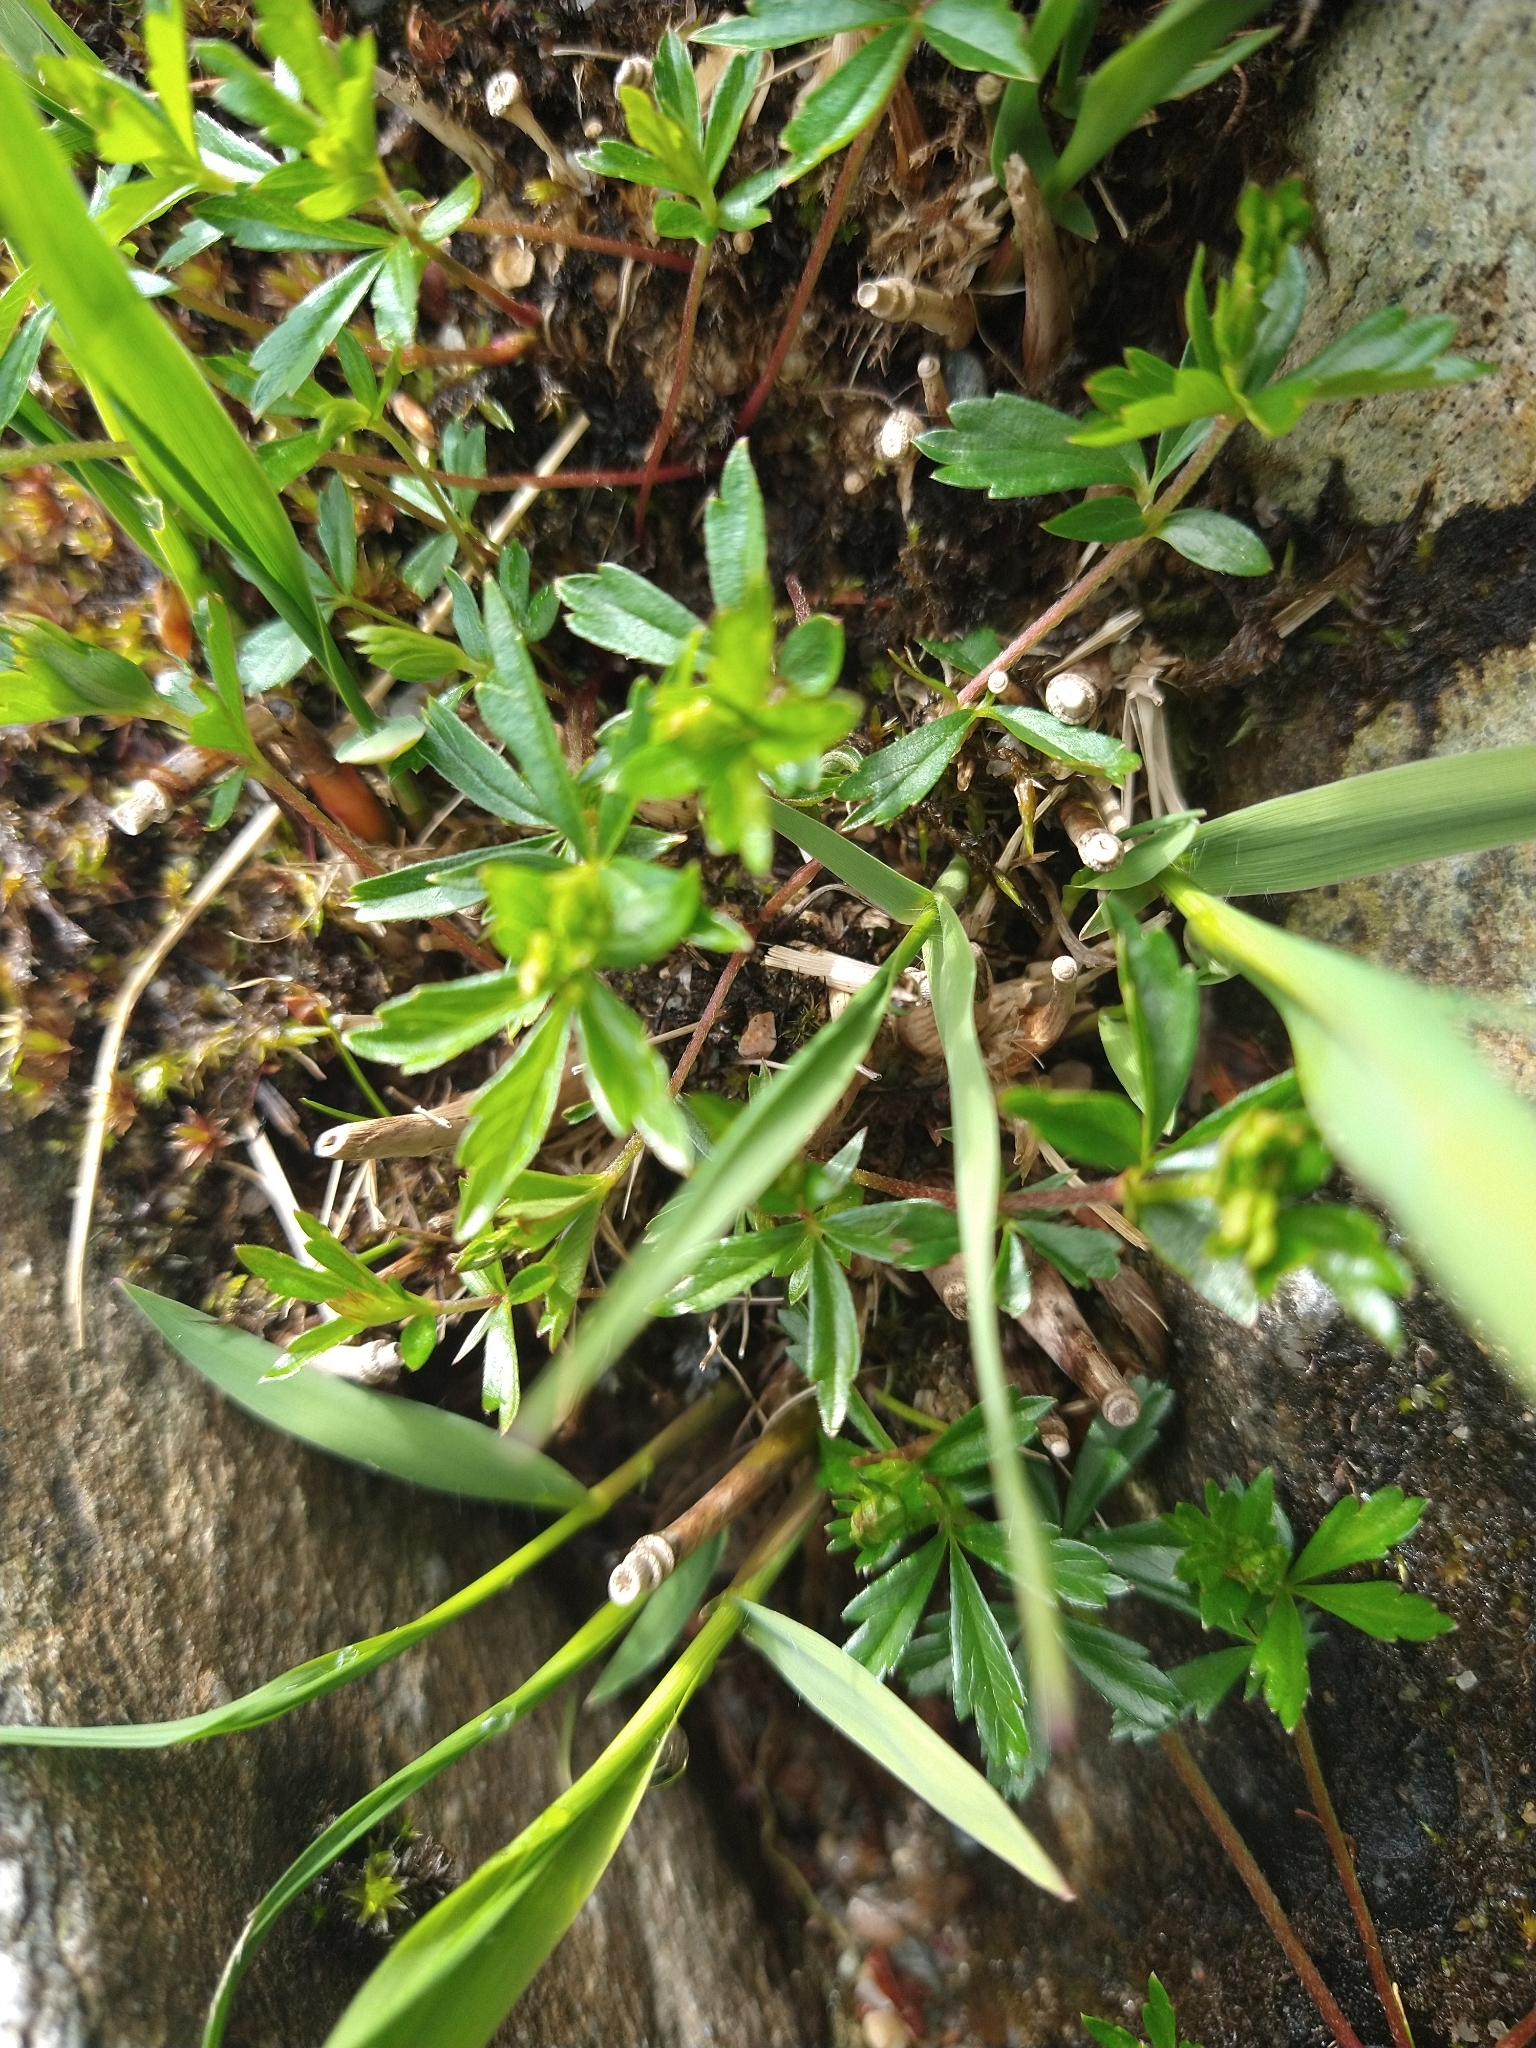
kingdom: Plantae
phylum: Tracheophyta
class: Magnoliopsida
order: Rosales
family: Rosaceae
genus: Potentilla
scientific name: Potentilla erecta
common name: Tormentil
